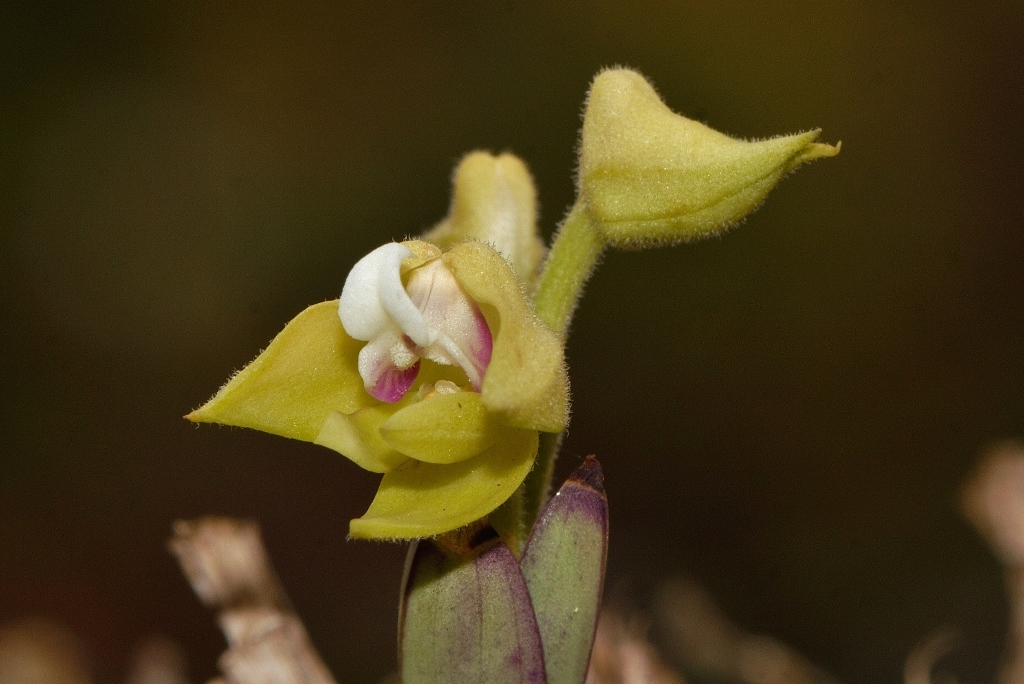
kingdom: Plantae
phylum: Tracheophyta
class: Liliopsida
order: Asparagales
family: Orchidaceae
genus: Polystachya
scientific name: Polystachya zambesiaca
